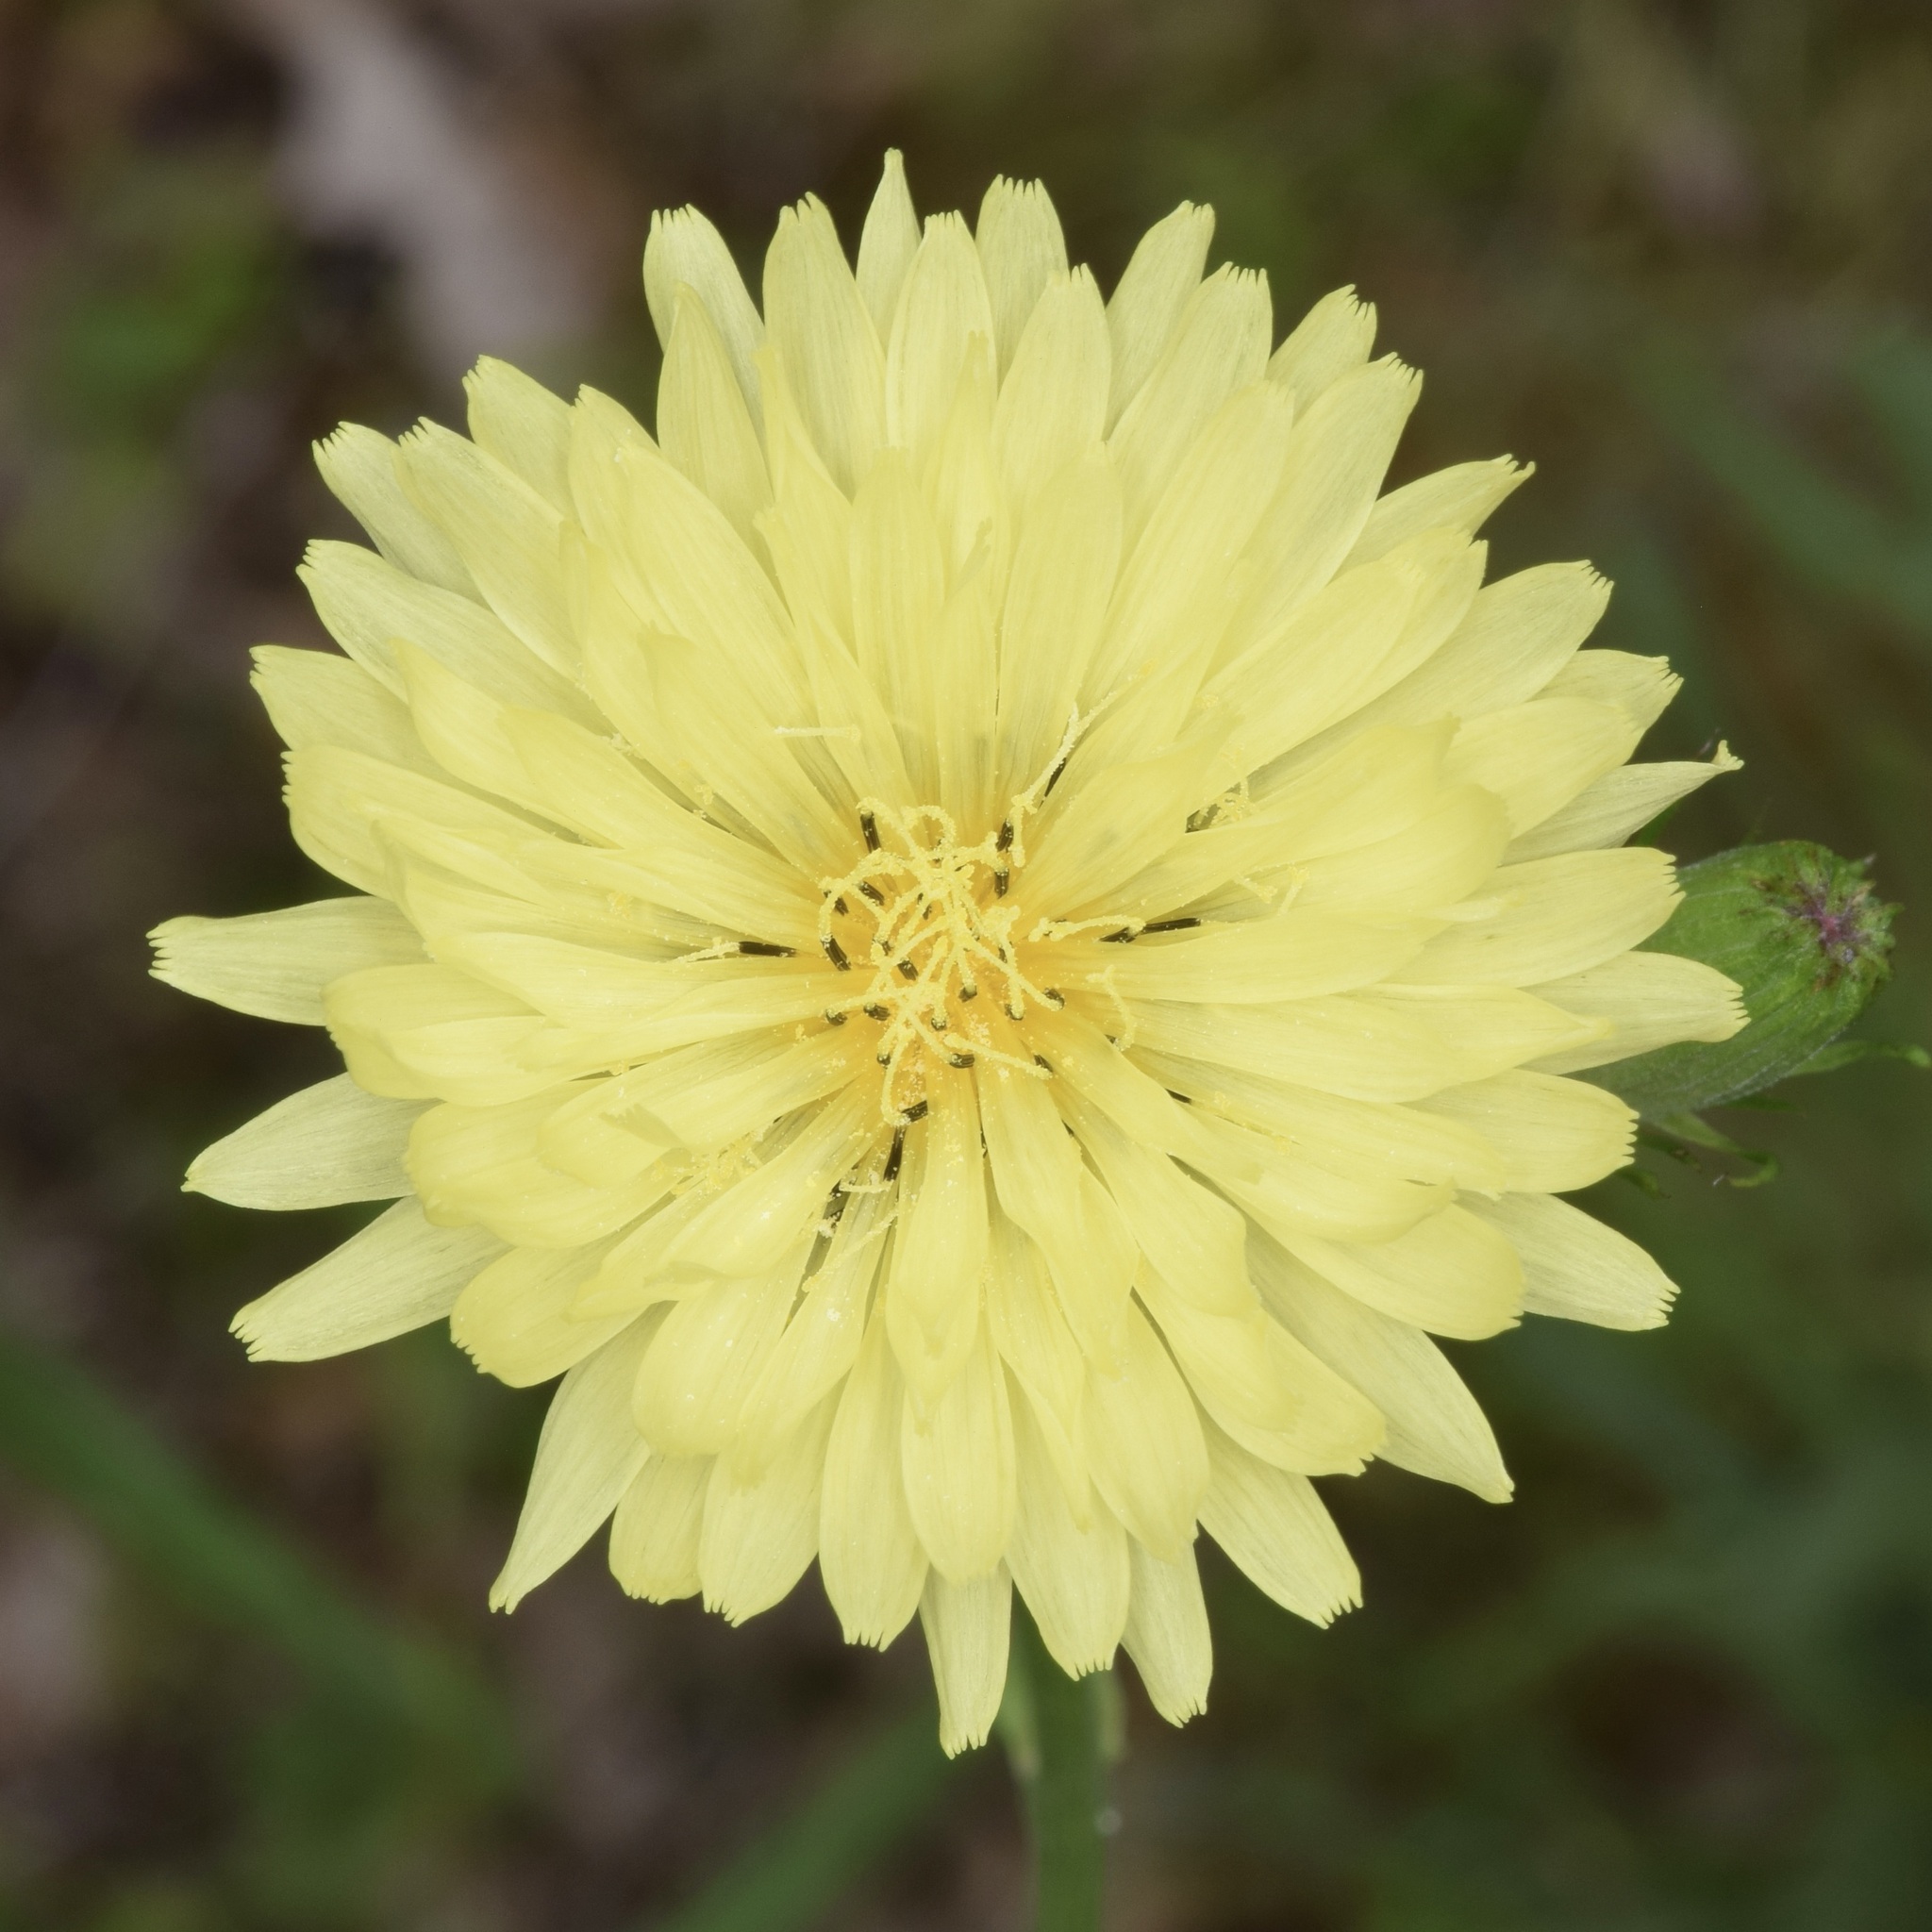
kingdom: Plantae
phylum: Tracheophyta
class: Magnoliopsida
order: Asterales
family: Asteraceae
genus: Pyrrhopappus
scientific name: Pyrrhopappus carolinianus
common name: Carolina desert-chicory
